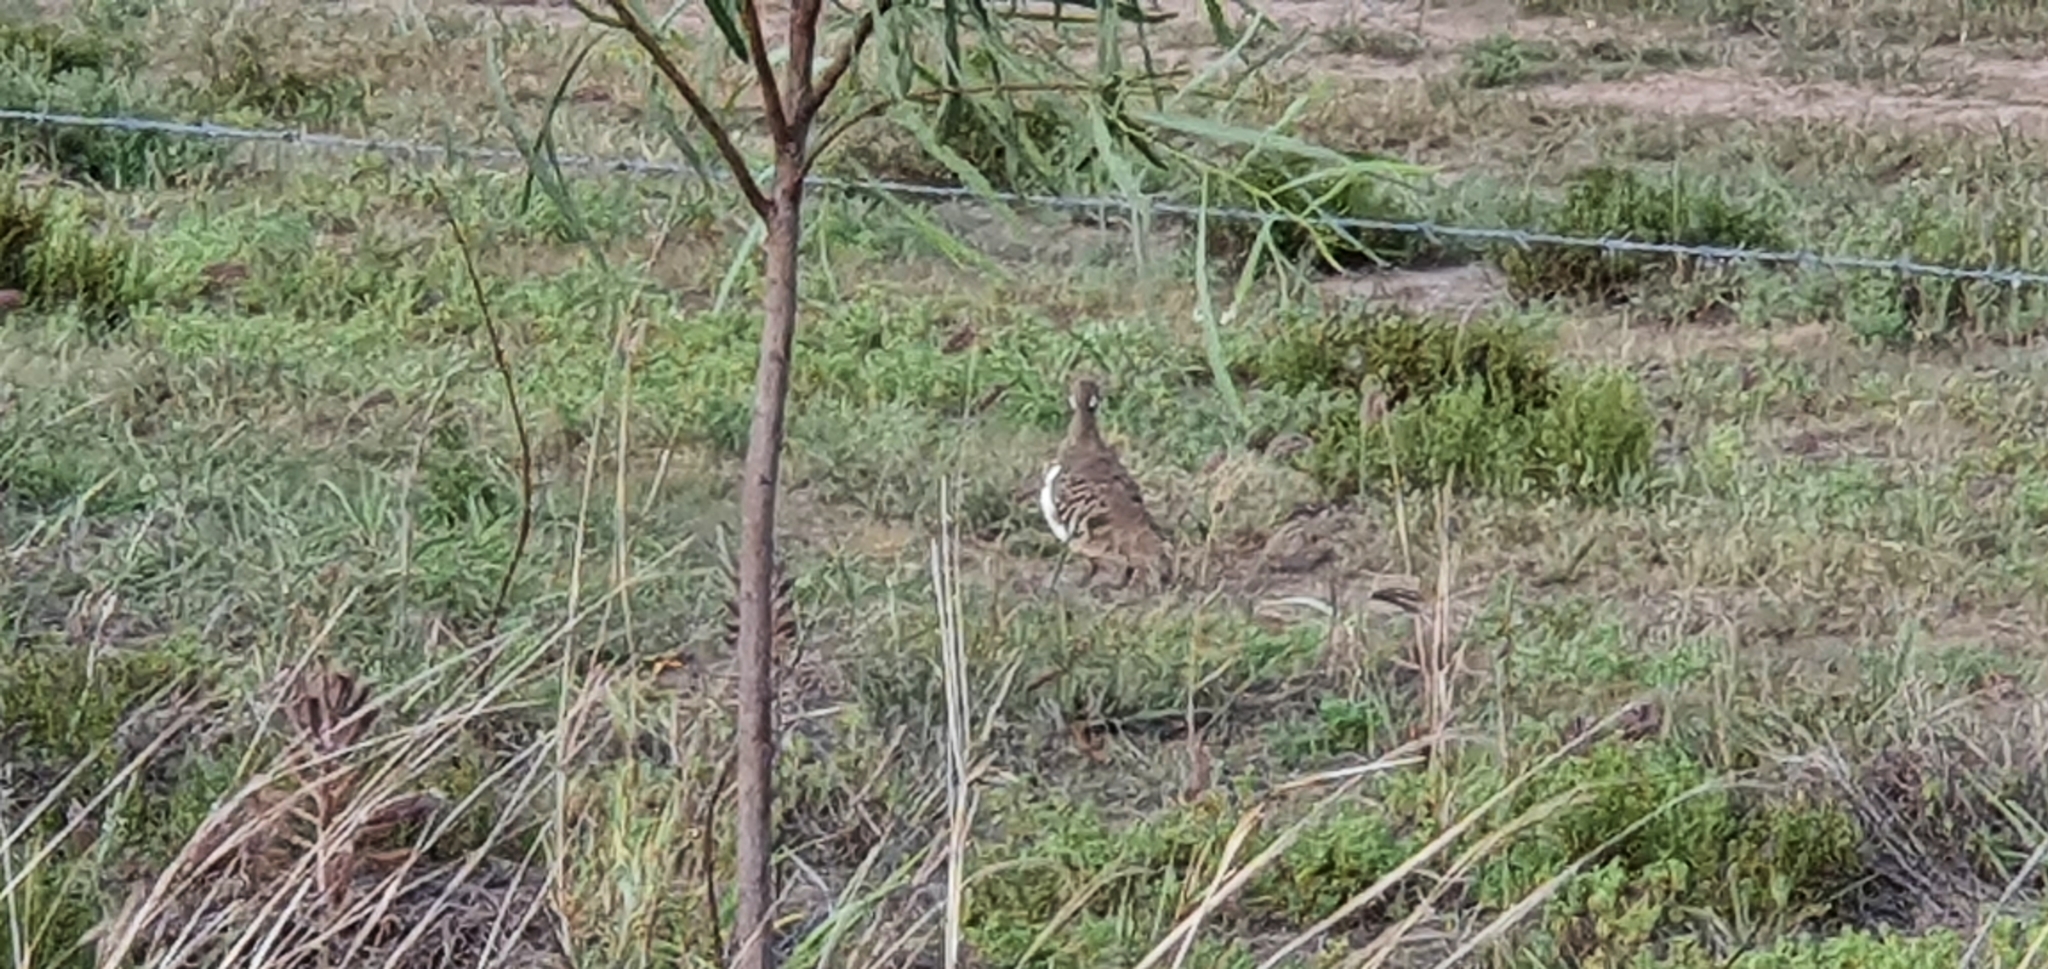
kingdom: Animalia
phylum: Chordata
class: Aves
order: Columbiformes
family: Columbidae
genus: Geophaps
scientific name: Geophaps scripta
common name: Squatter pigeon
